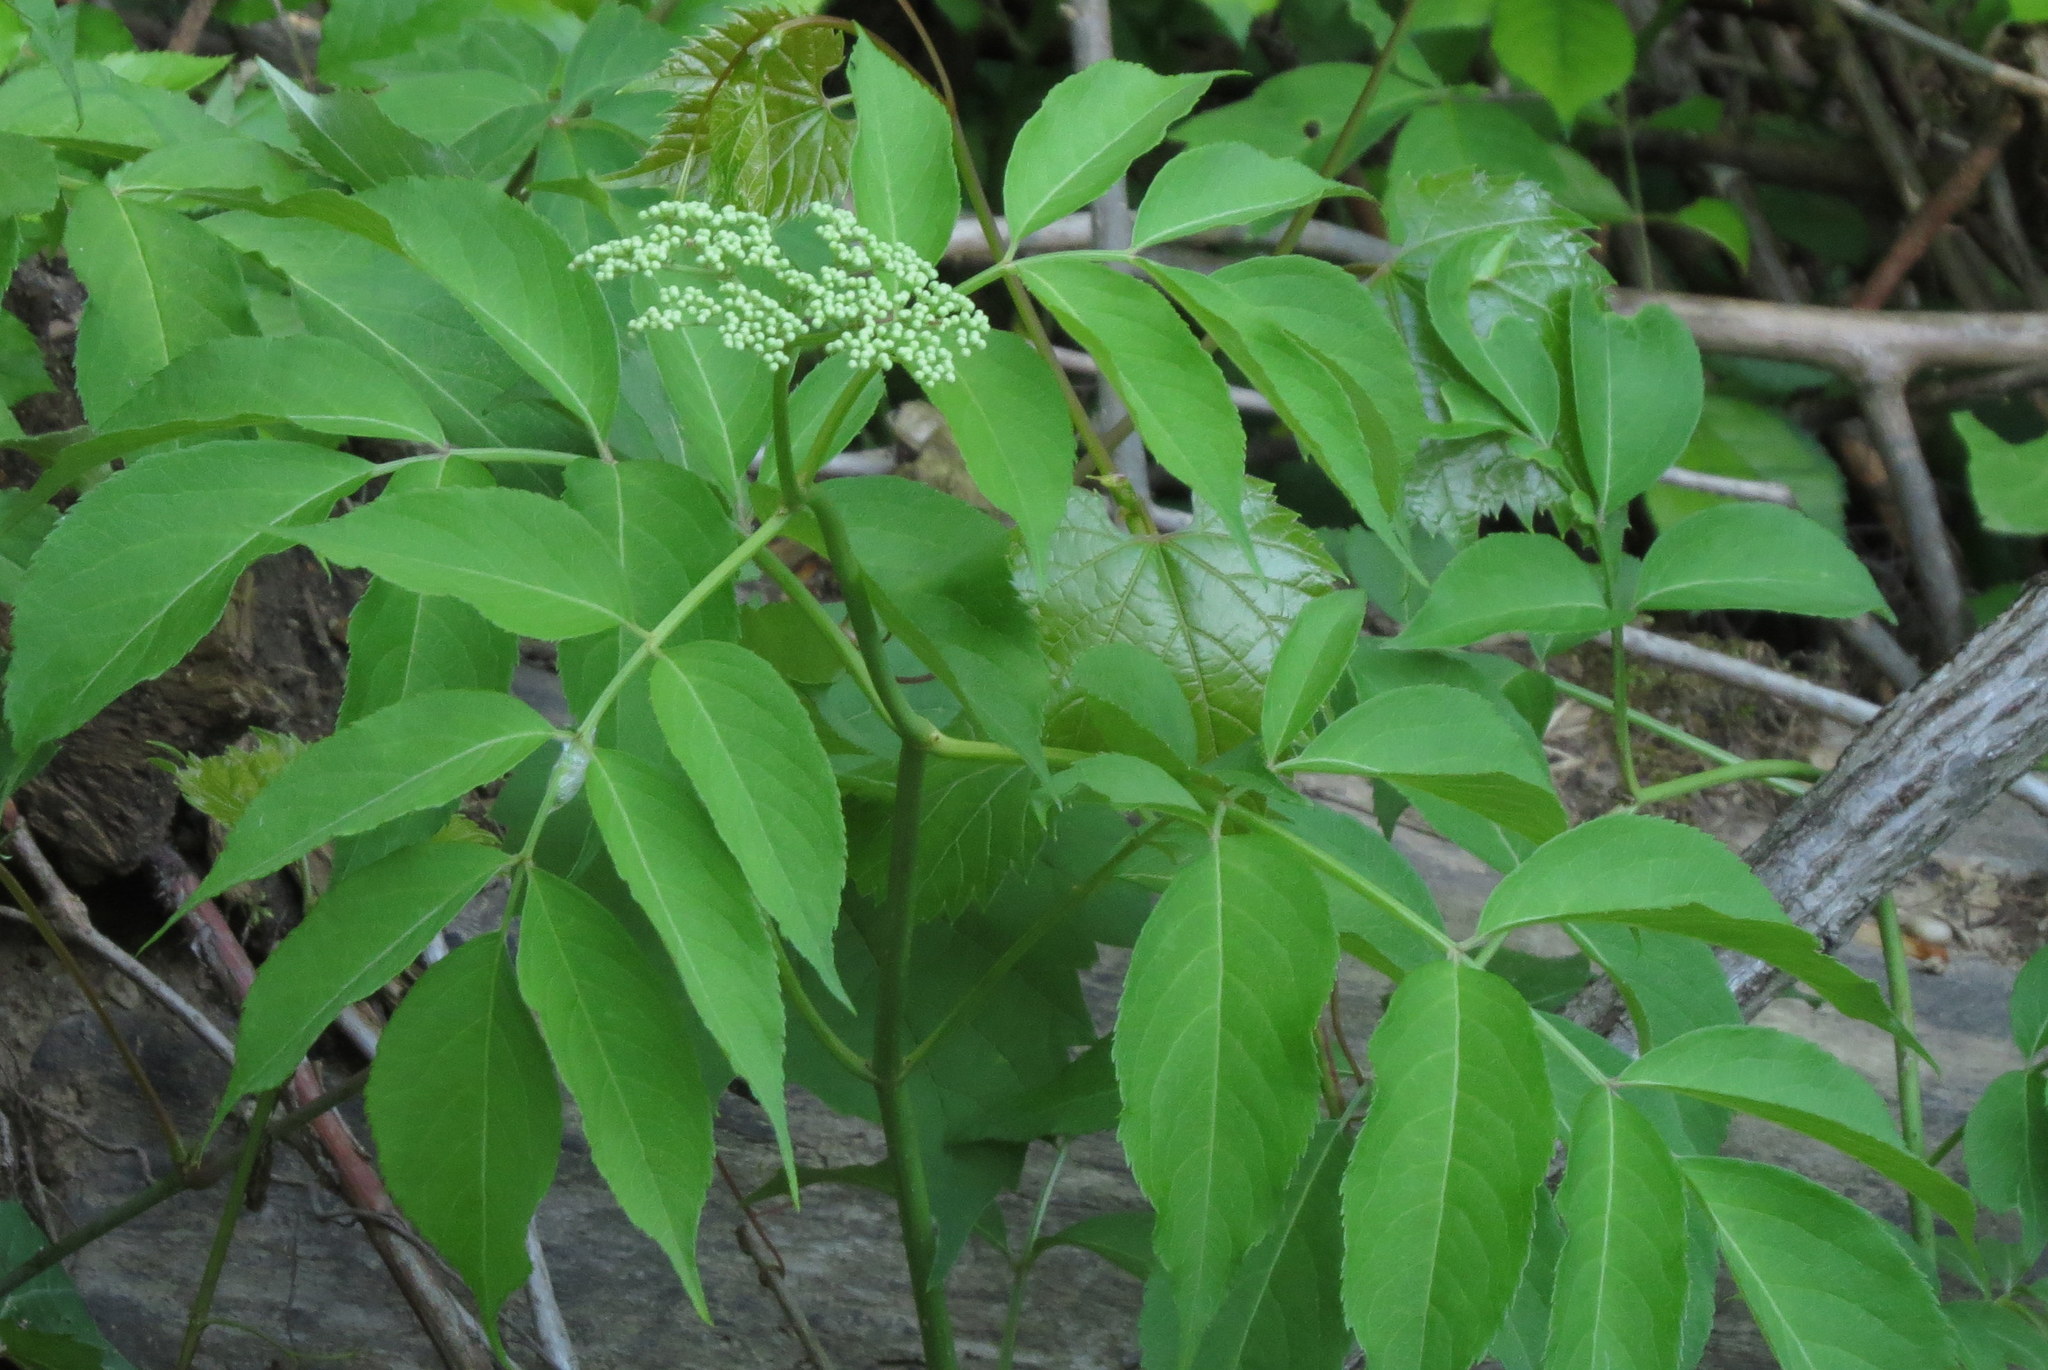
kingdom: Plantae
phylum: Tracheophyta
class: Magnoliopsida
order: Dipsacales
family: Viburnaceae
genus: Sambucus
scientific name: Sambucus canadensis
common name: American elder
